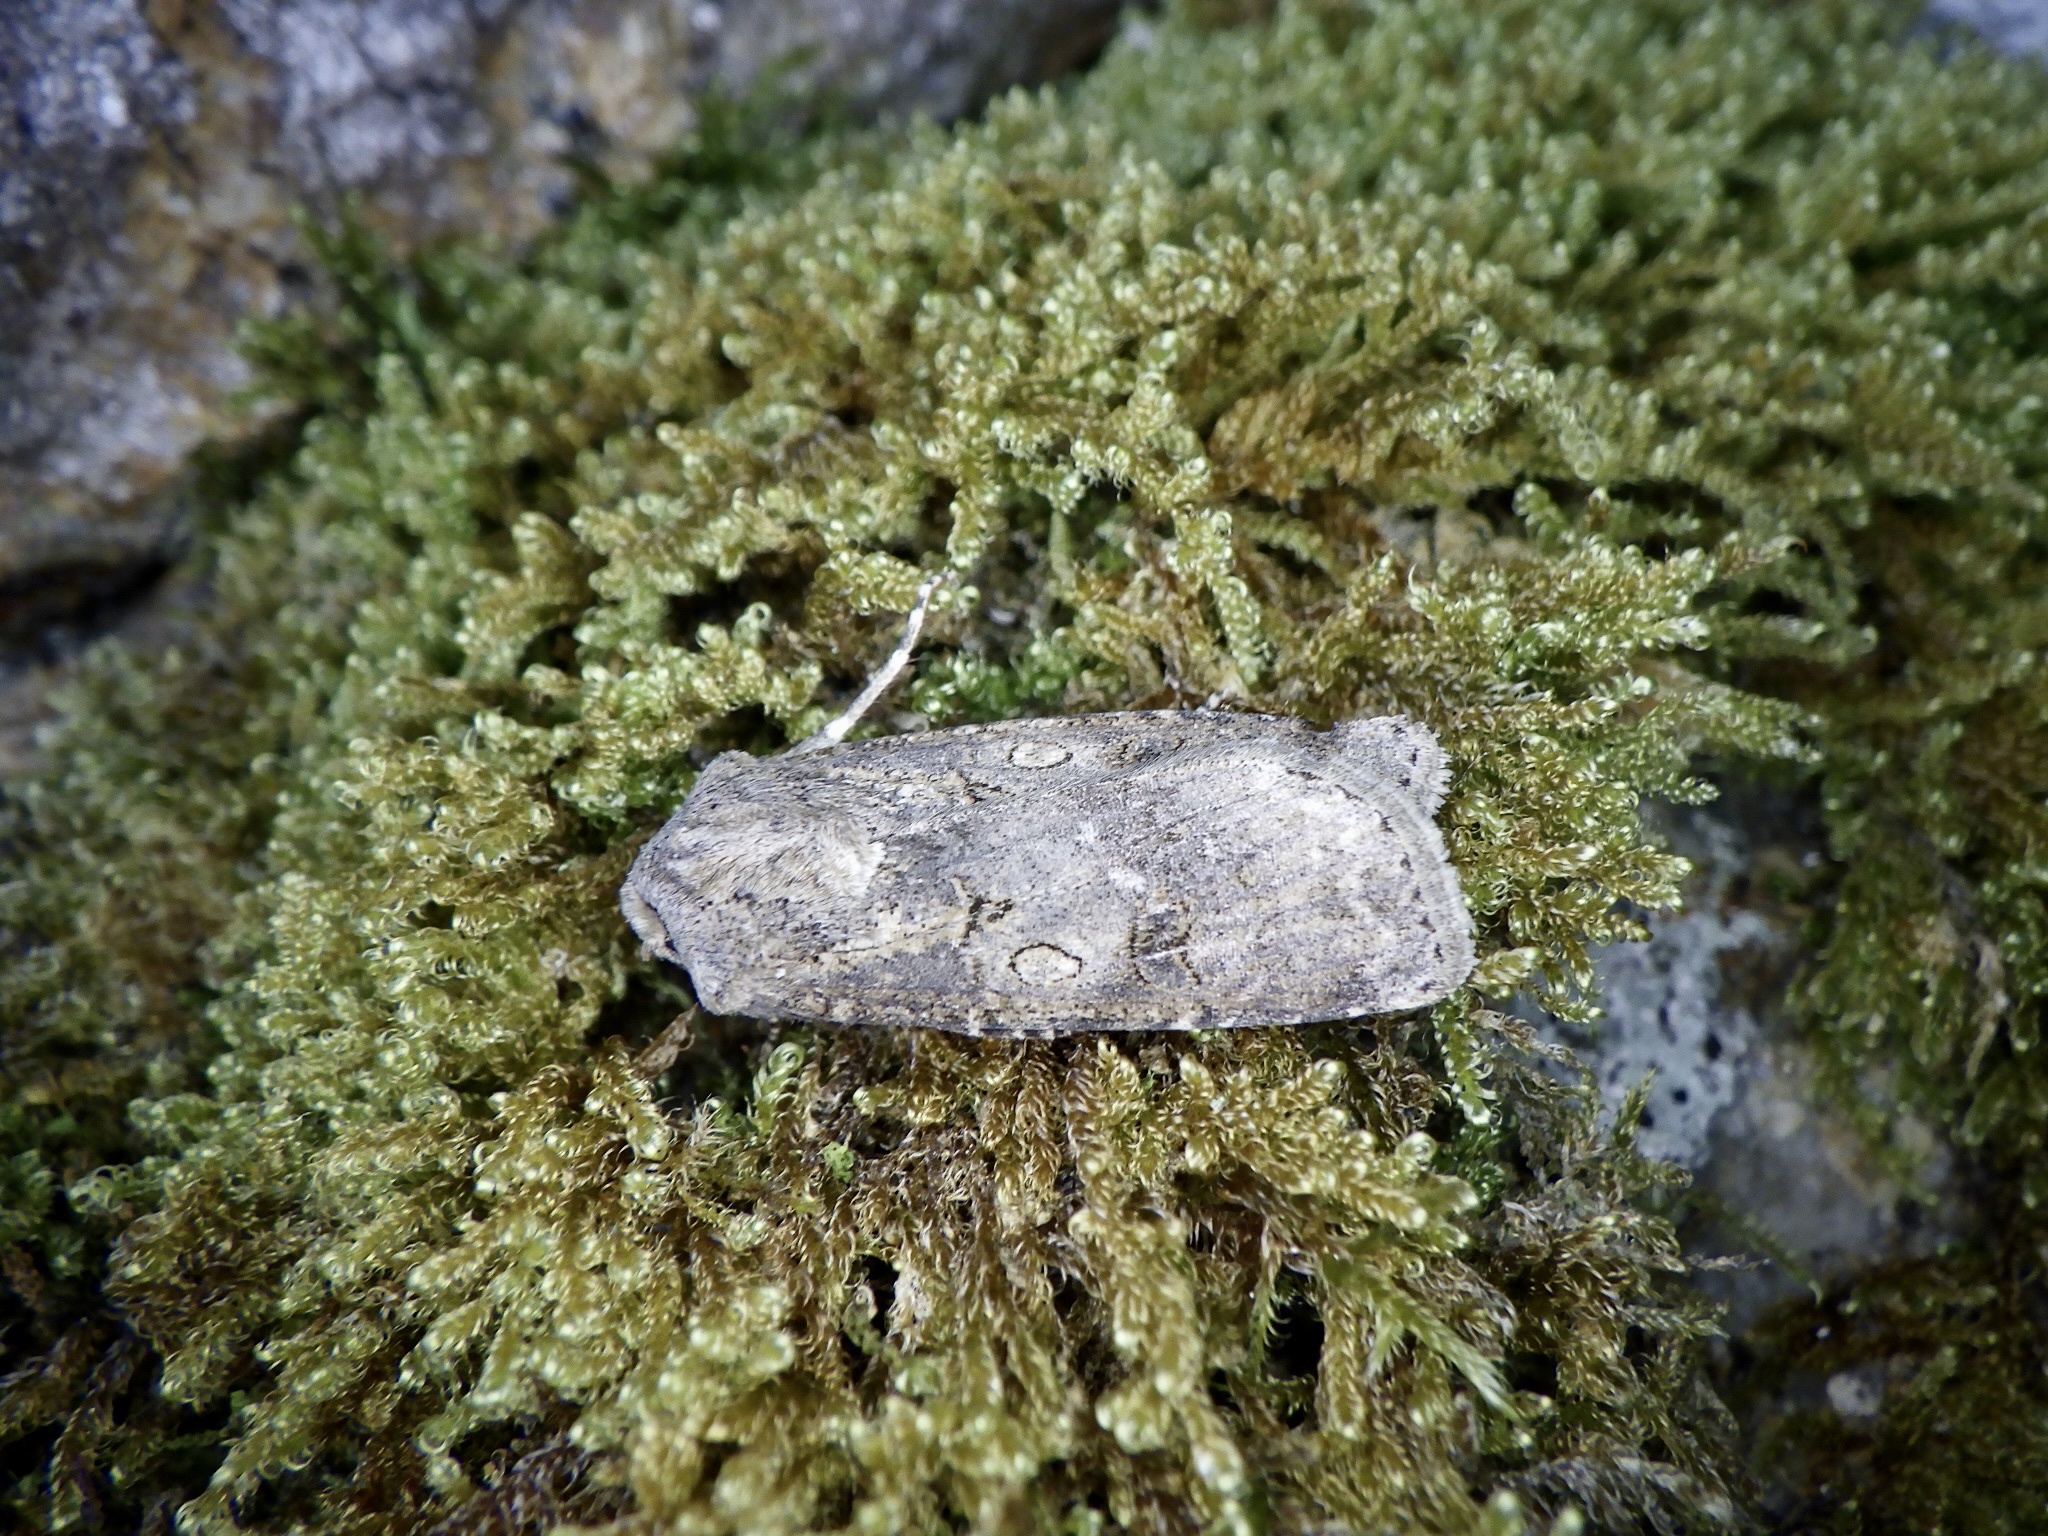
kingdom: Animalia
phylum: Arthropoda
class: Insecta
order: Lepidoptera
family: Noctuidae
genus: Agrotis
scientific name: Agrotis segetum
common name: Turnip moth
